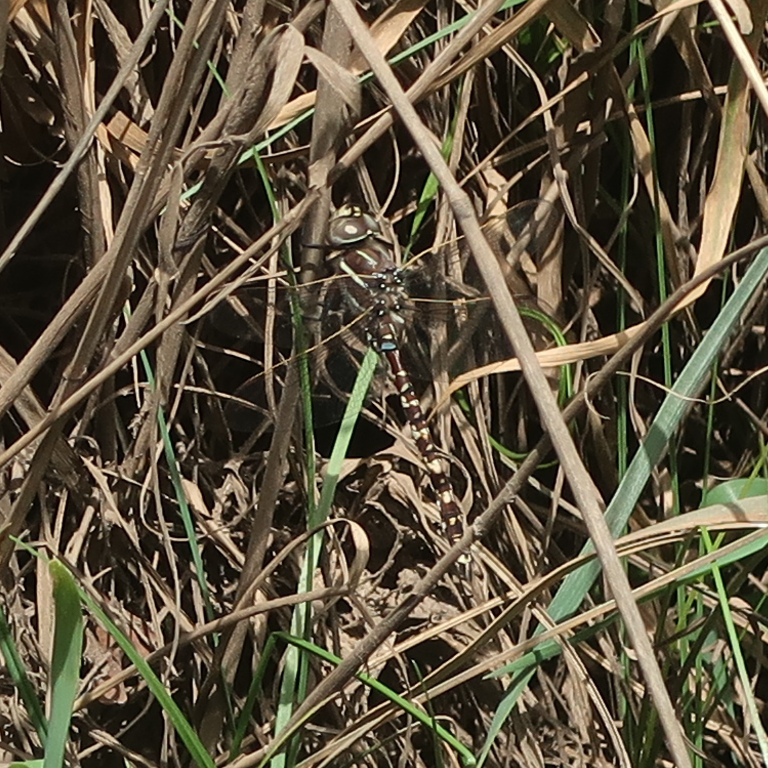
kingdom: Animalia
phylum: Arthropoda
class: Insecta
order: Odonata
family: Aeshnidae
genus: Aeshna
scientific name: Aeshna brevistyla
